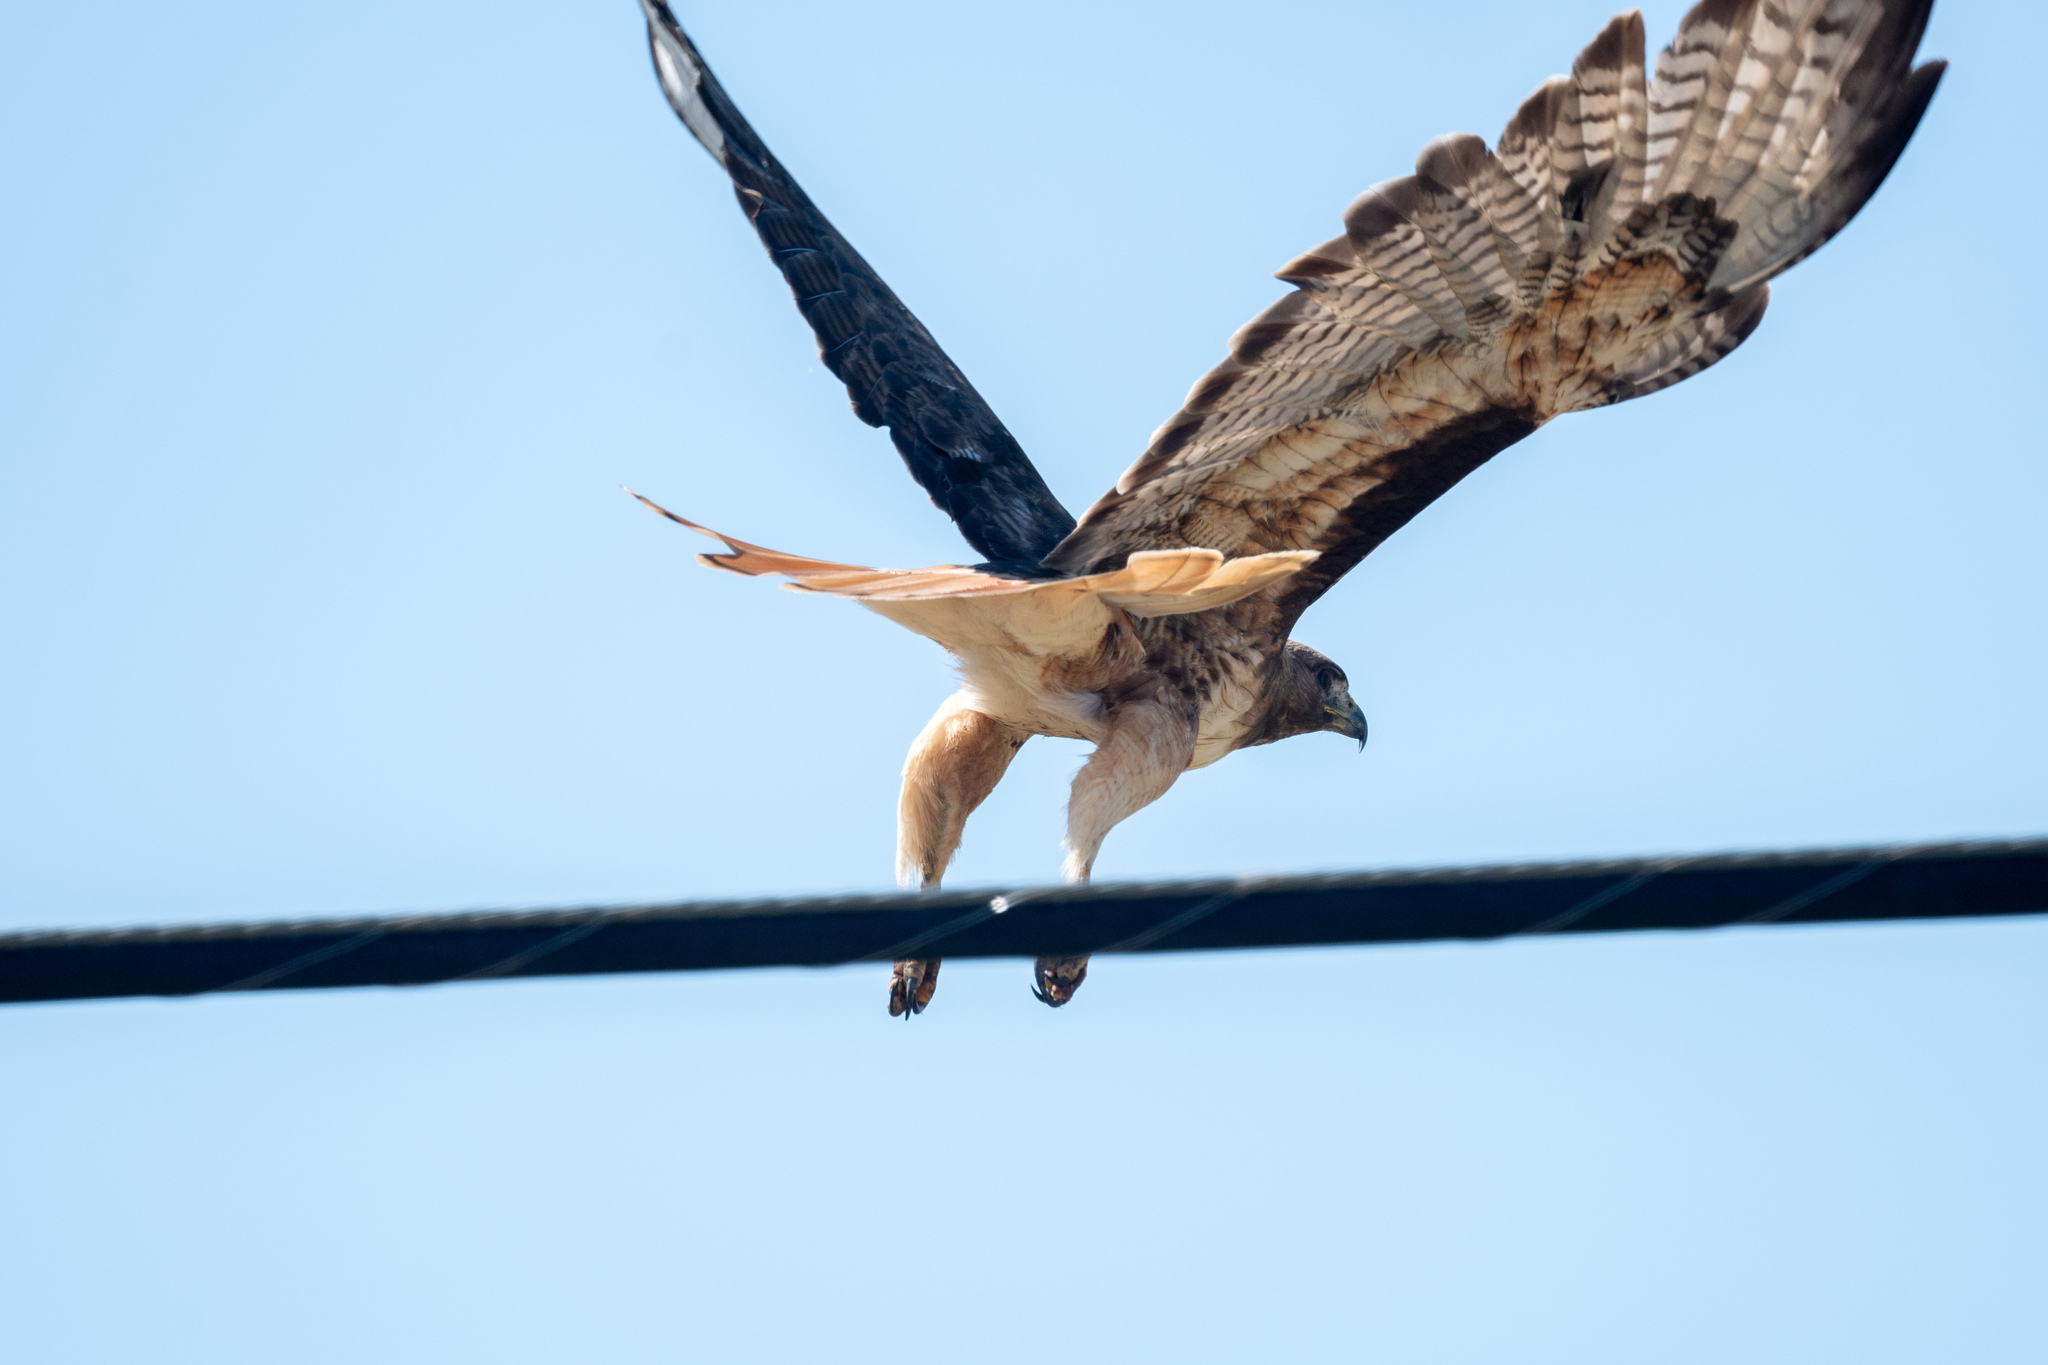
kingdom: Animalia
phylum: Chordata
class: Aves
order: Accipitriformes
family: Accipitridae
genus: Buteo
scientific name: Buteo jamaicensis
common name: Red-tailed hawk
